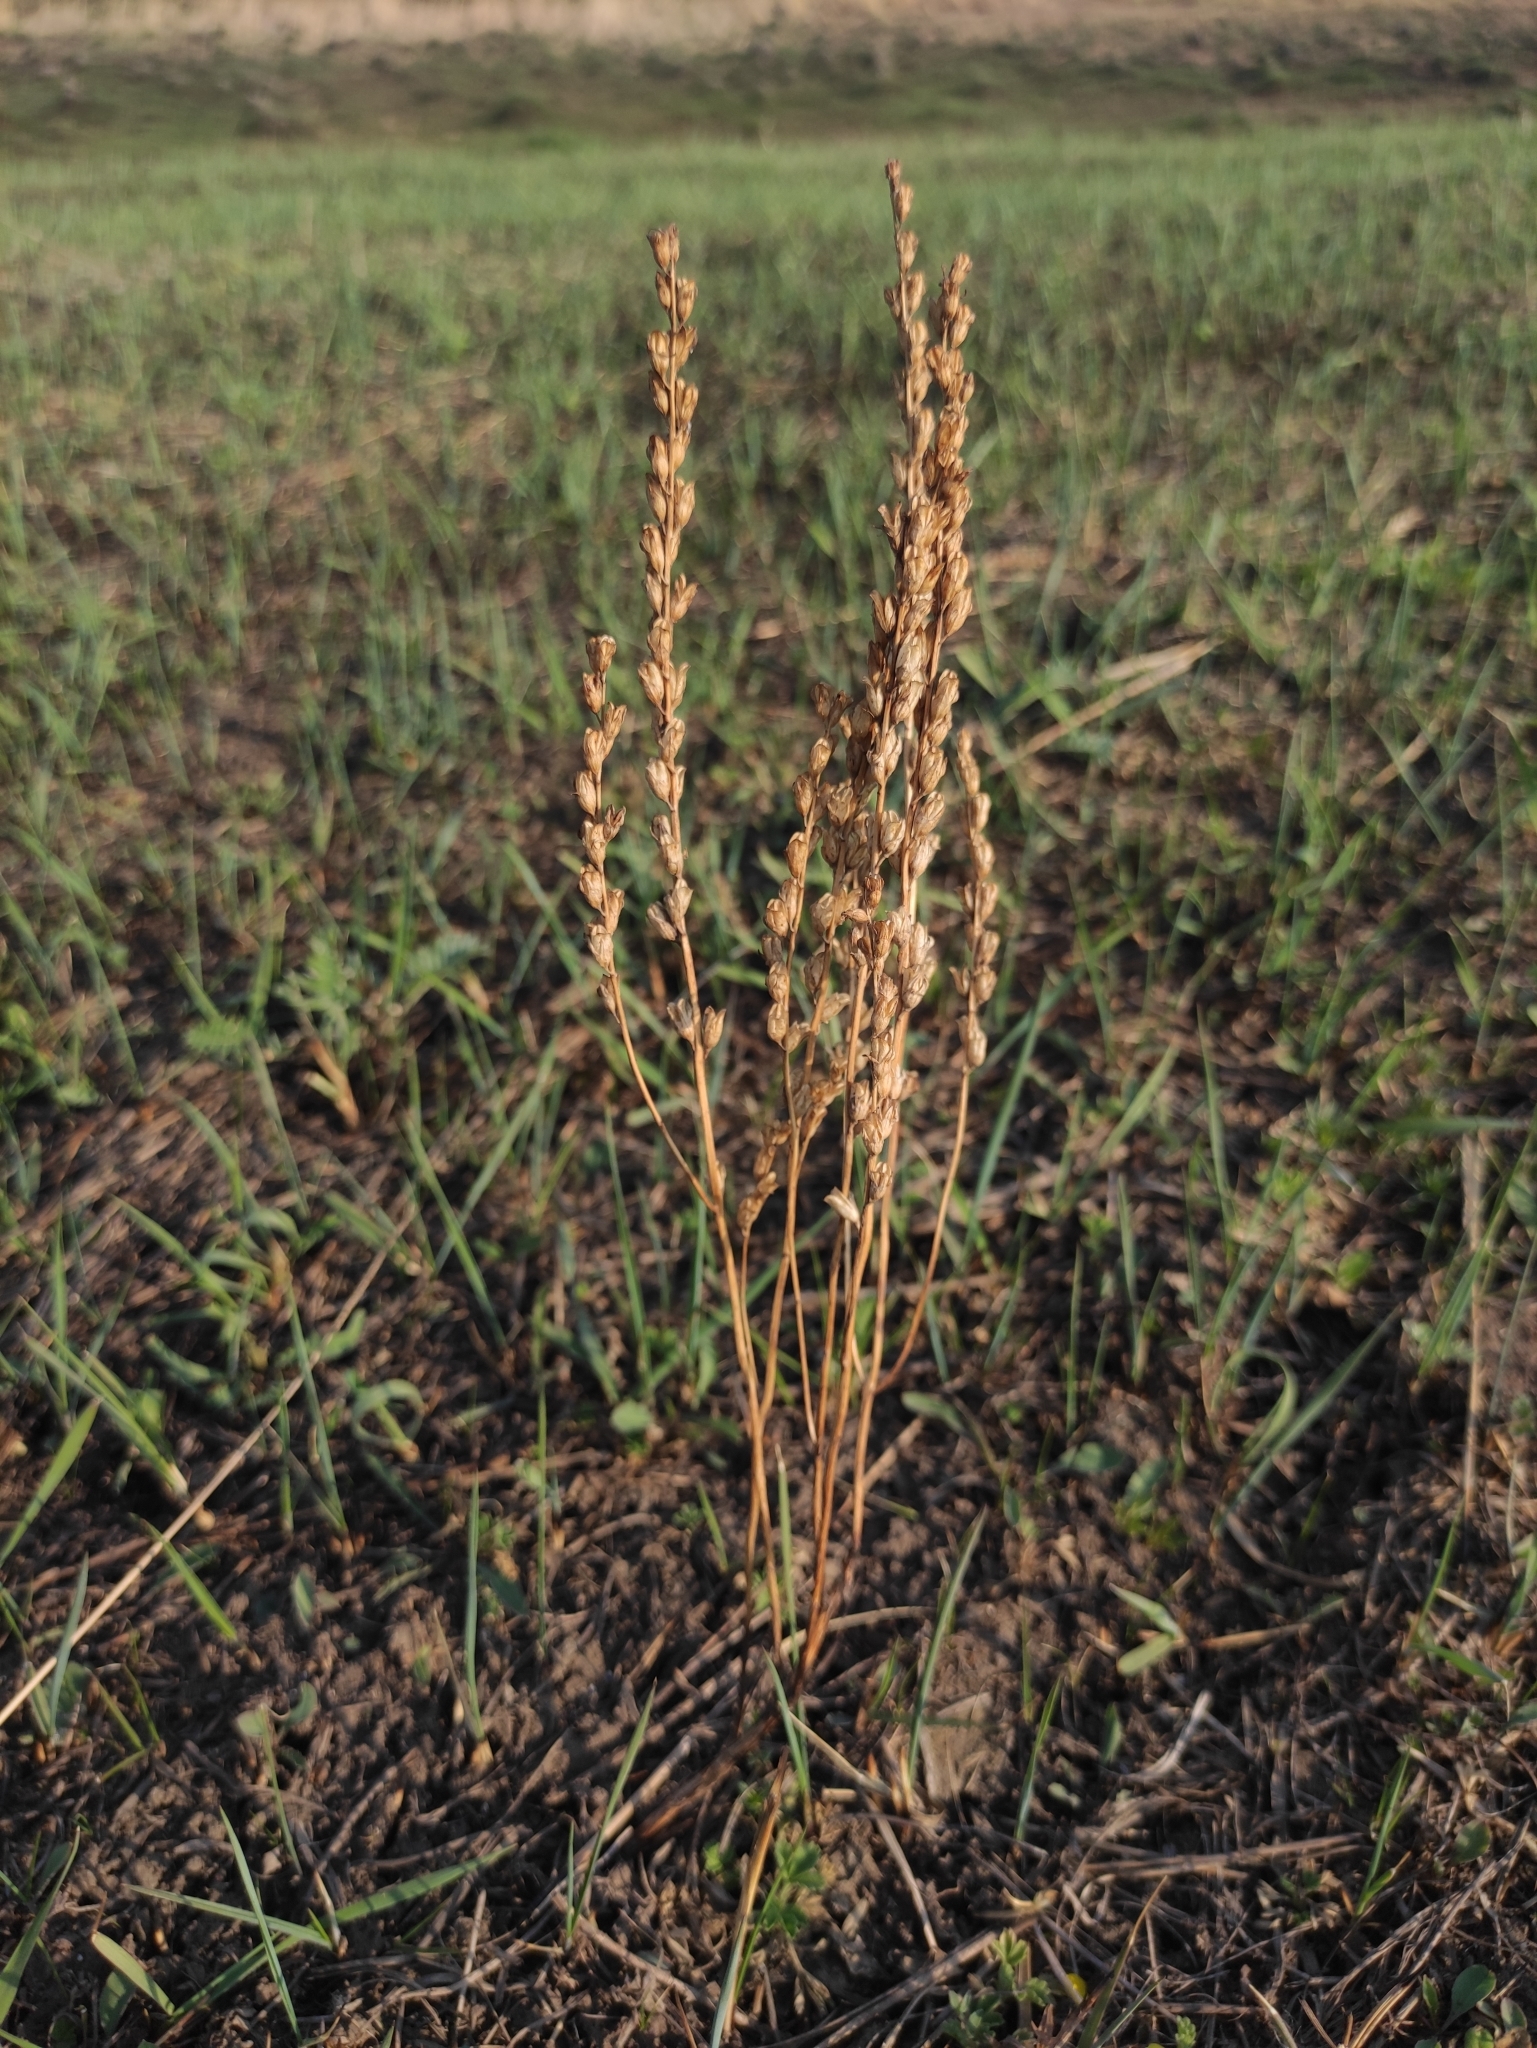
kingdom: Plantae
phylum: Tracheophyta
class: Magnoliopsida
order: Lamiales
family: Orobanchaceae
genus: Odontites
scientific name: Odontites vulgaris
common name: Broomrape
